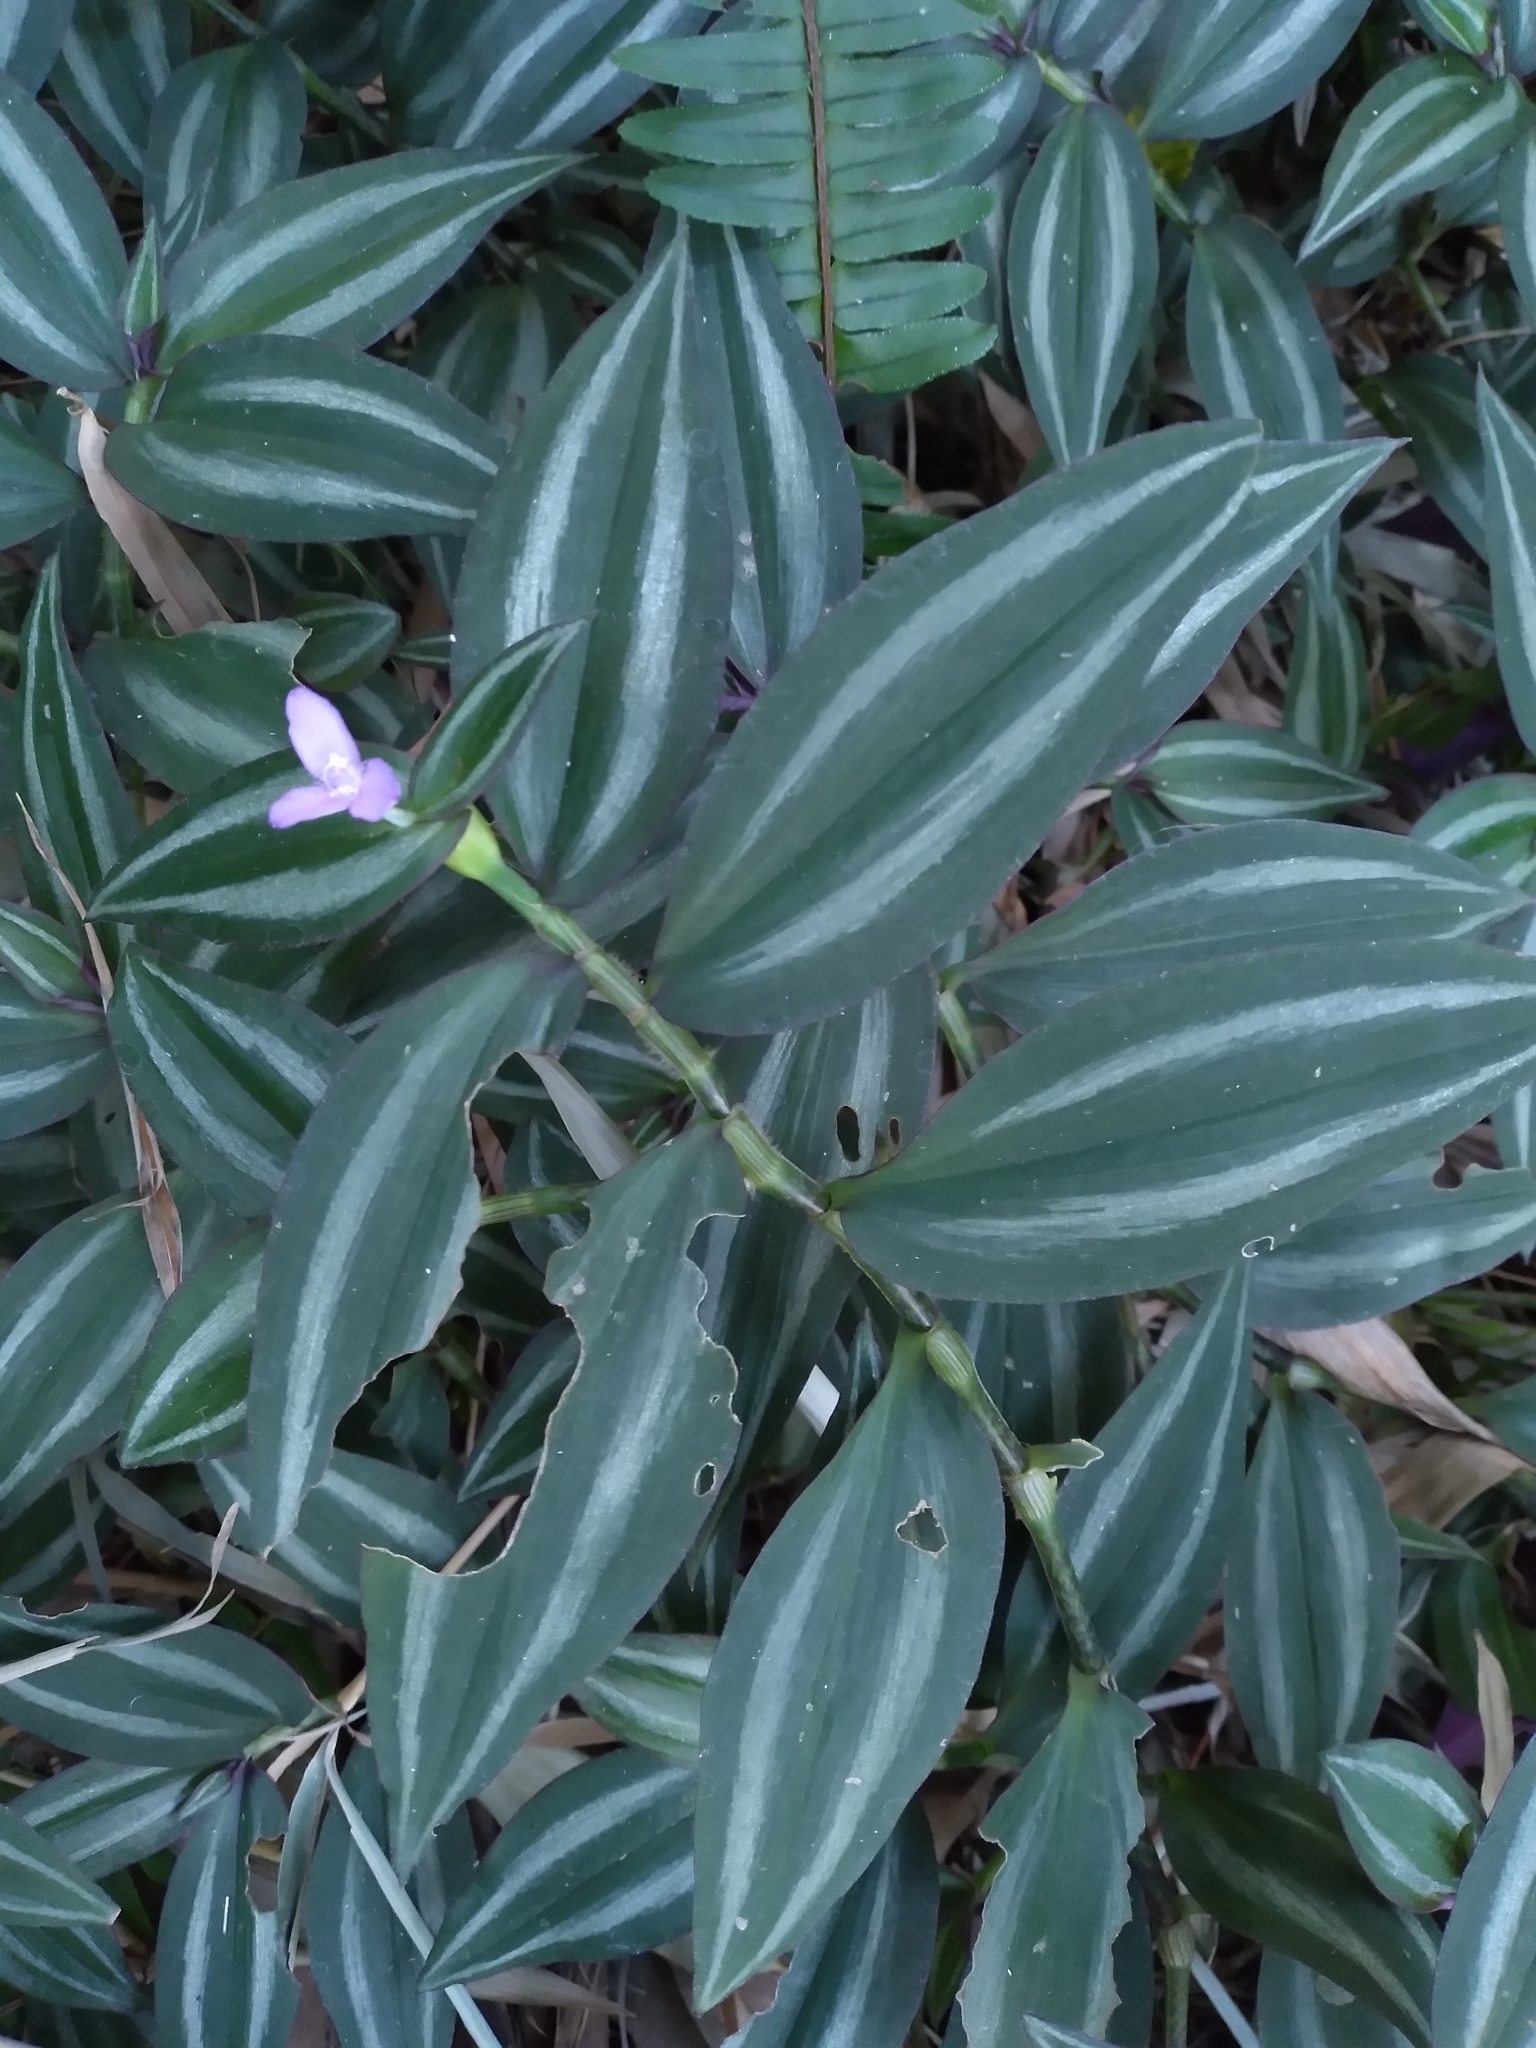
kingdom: Plantae
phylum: Tracheophyta
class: Liliopsida
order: Commelinales
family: Commelinaceae
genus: Tradescantia
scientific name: Tradescantia zebrina
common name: Inchplant
